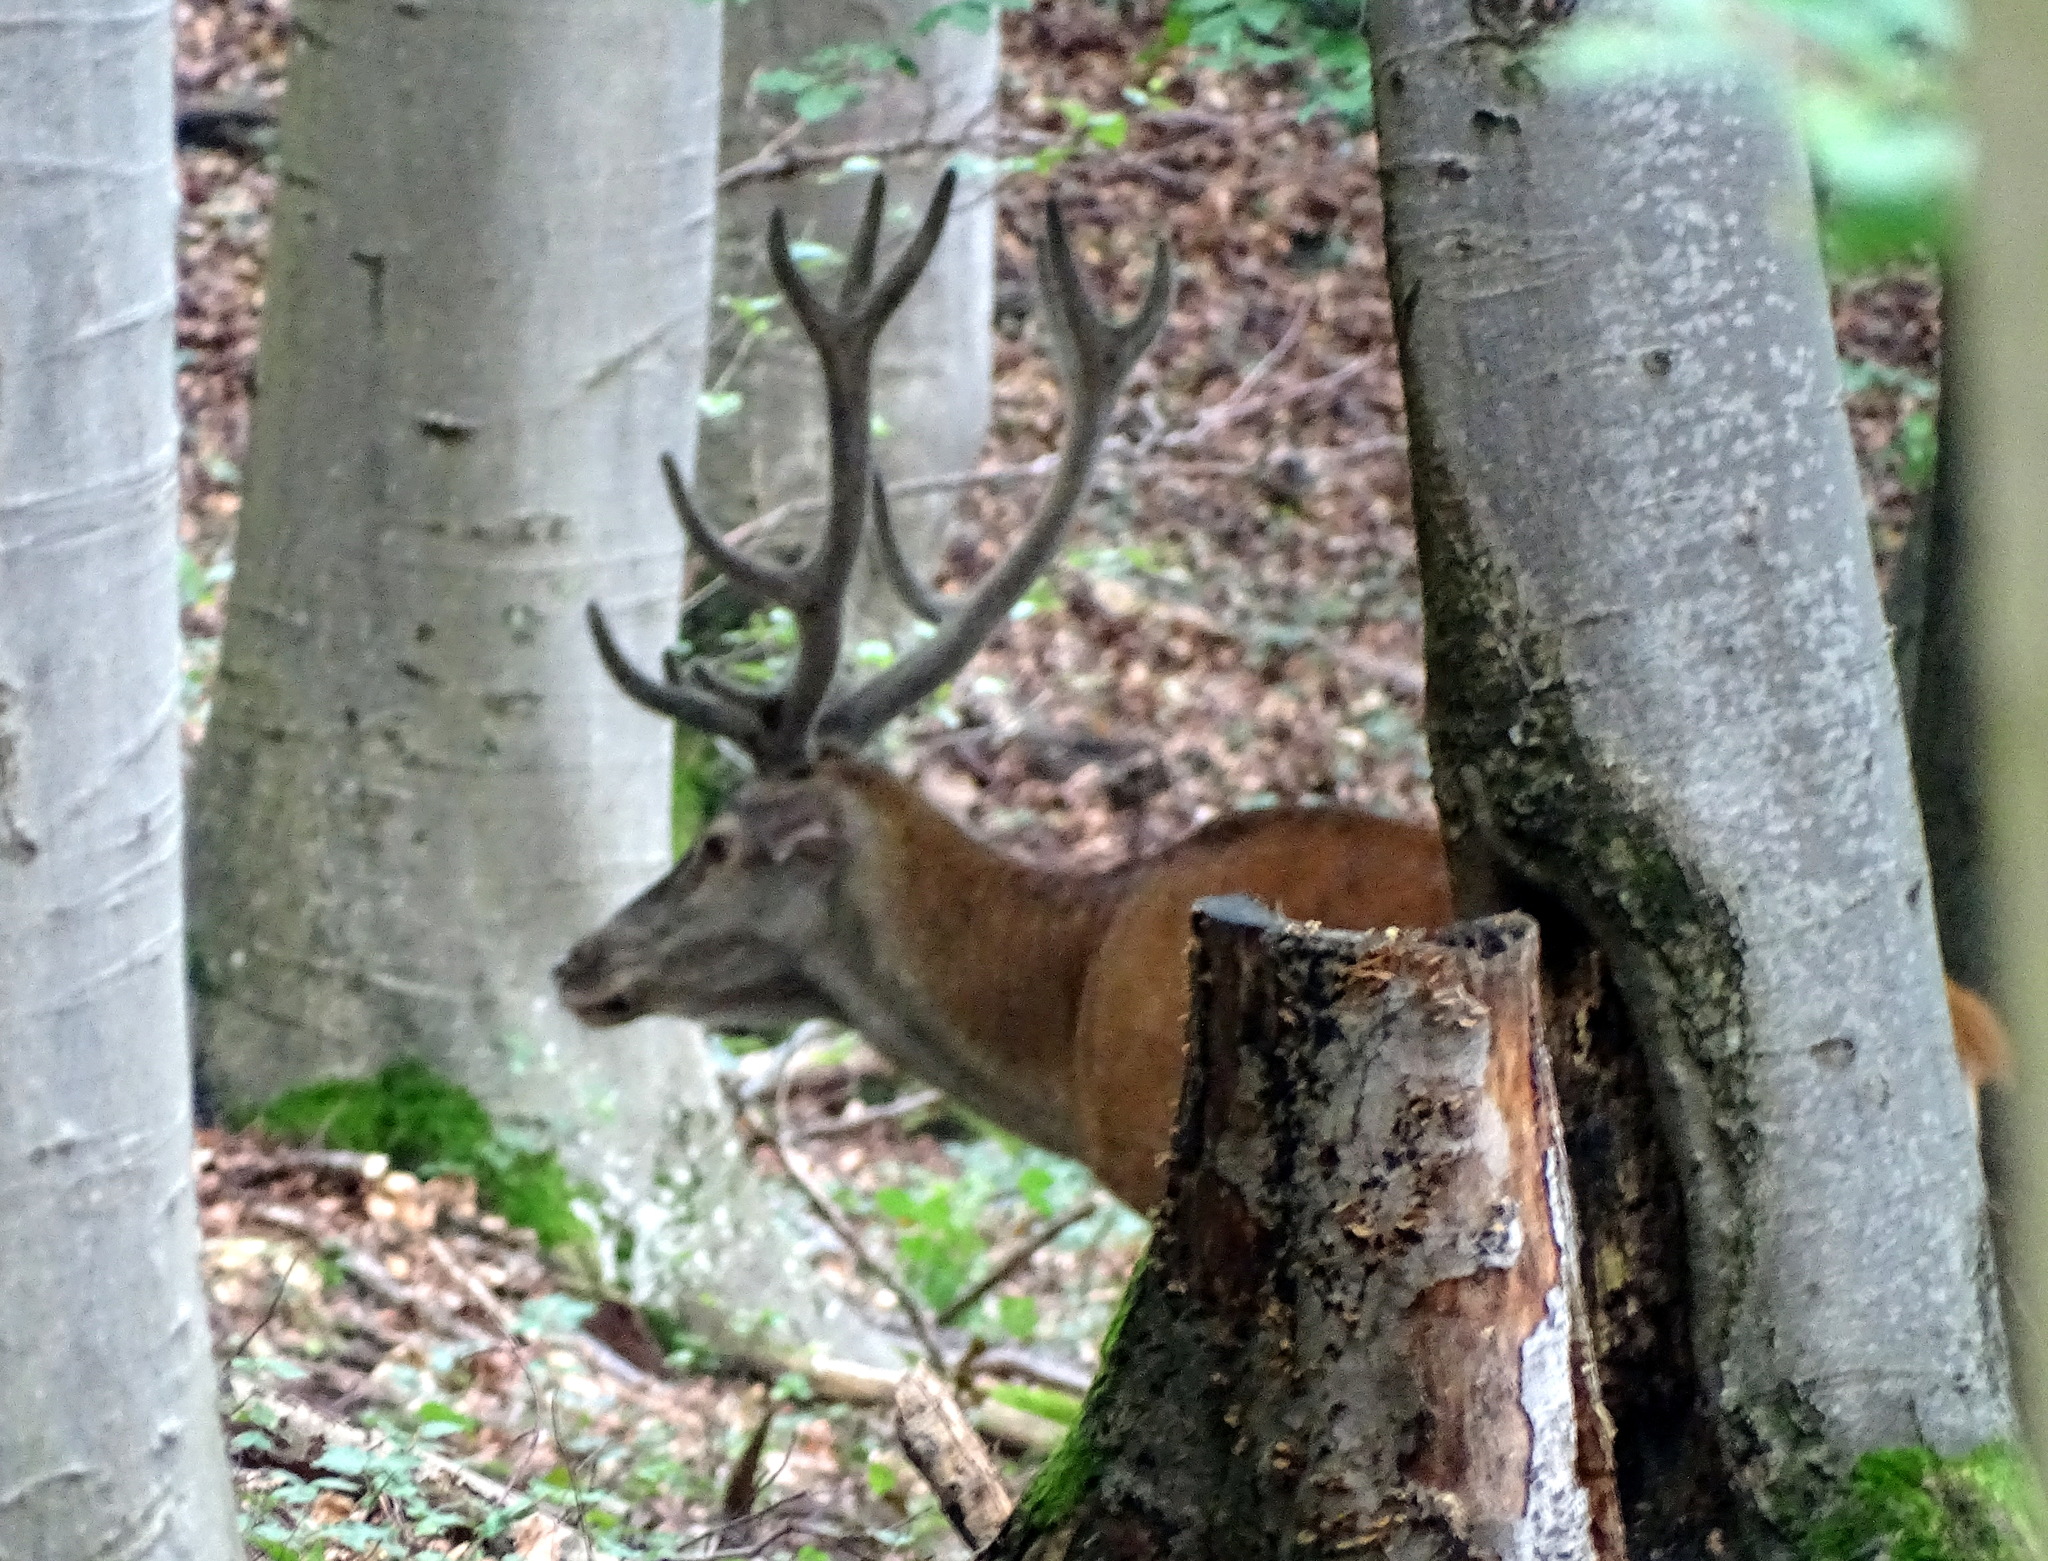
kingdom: Animalia
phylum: Chordata
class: Mammalia
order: Artiodactyla
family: Cervidae
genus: Cervus
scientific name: Cervus elaphus
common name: Red deer
